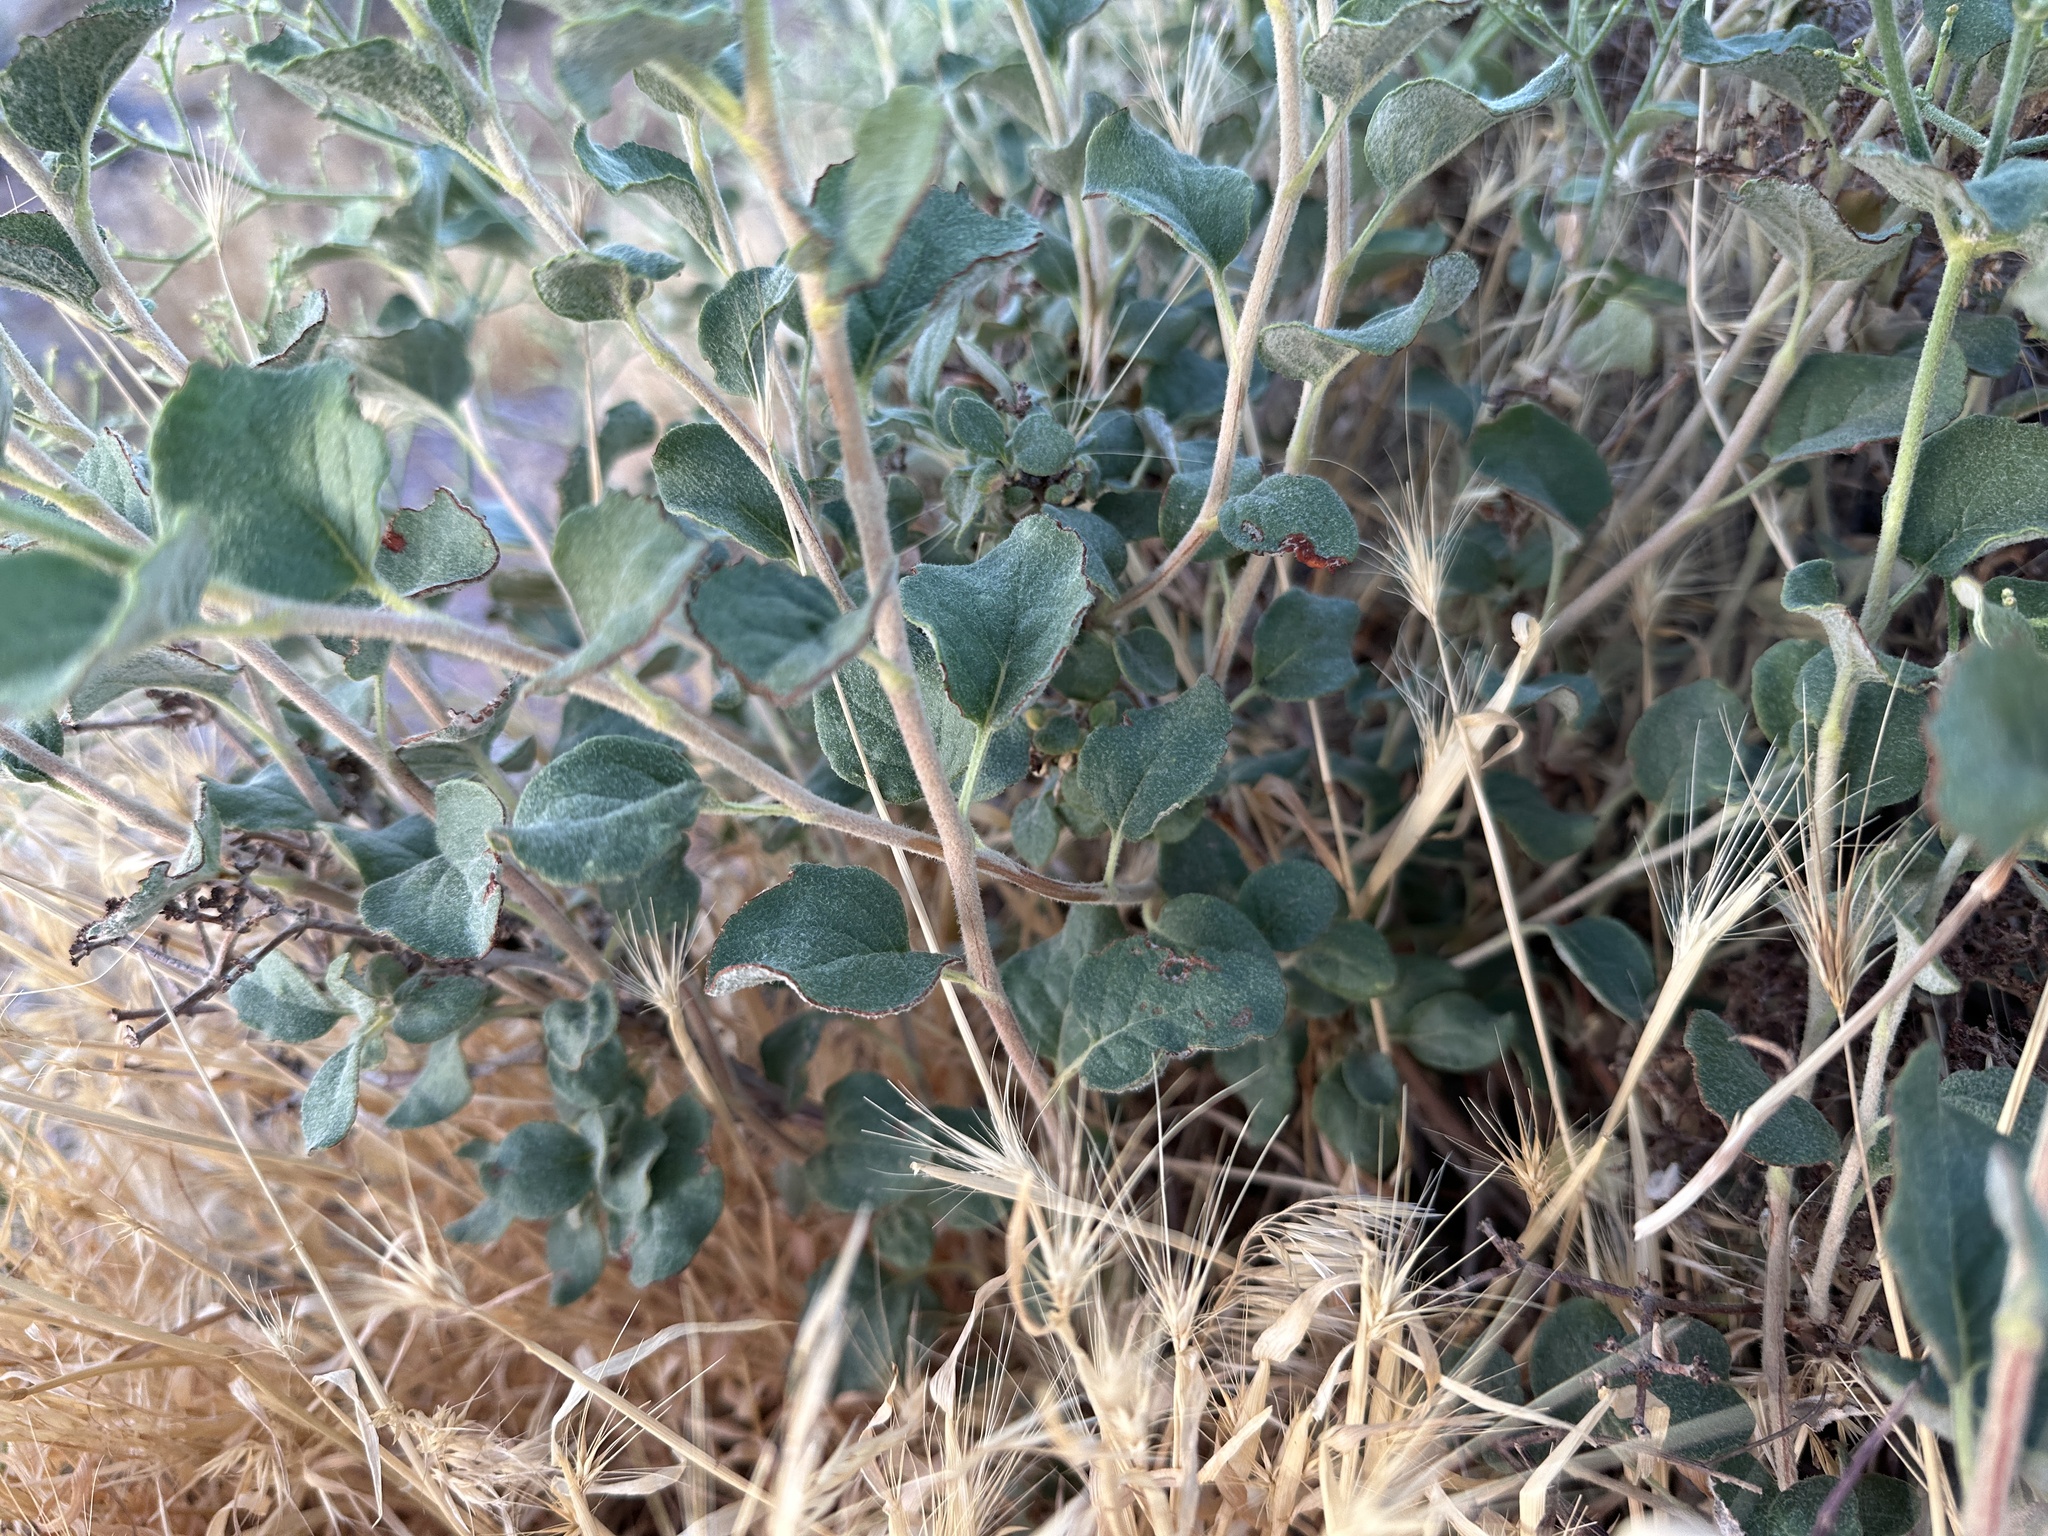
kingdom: Plantae
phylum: Tracheophyta
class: Magnoliopsida
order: Caryophyllales
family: Polygonaceae
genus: Eriogonum
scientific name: Eriogonum corymbosum
